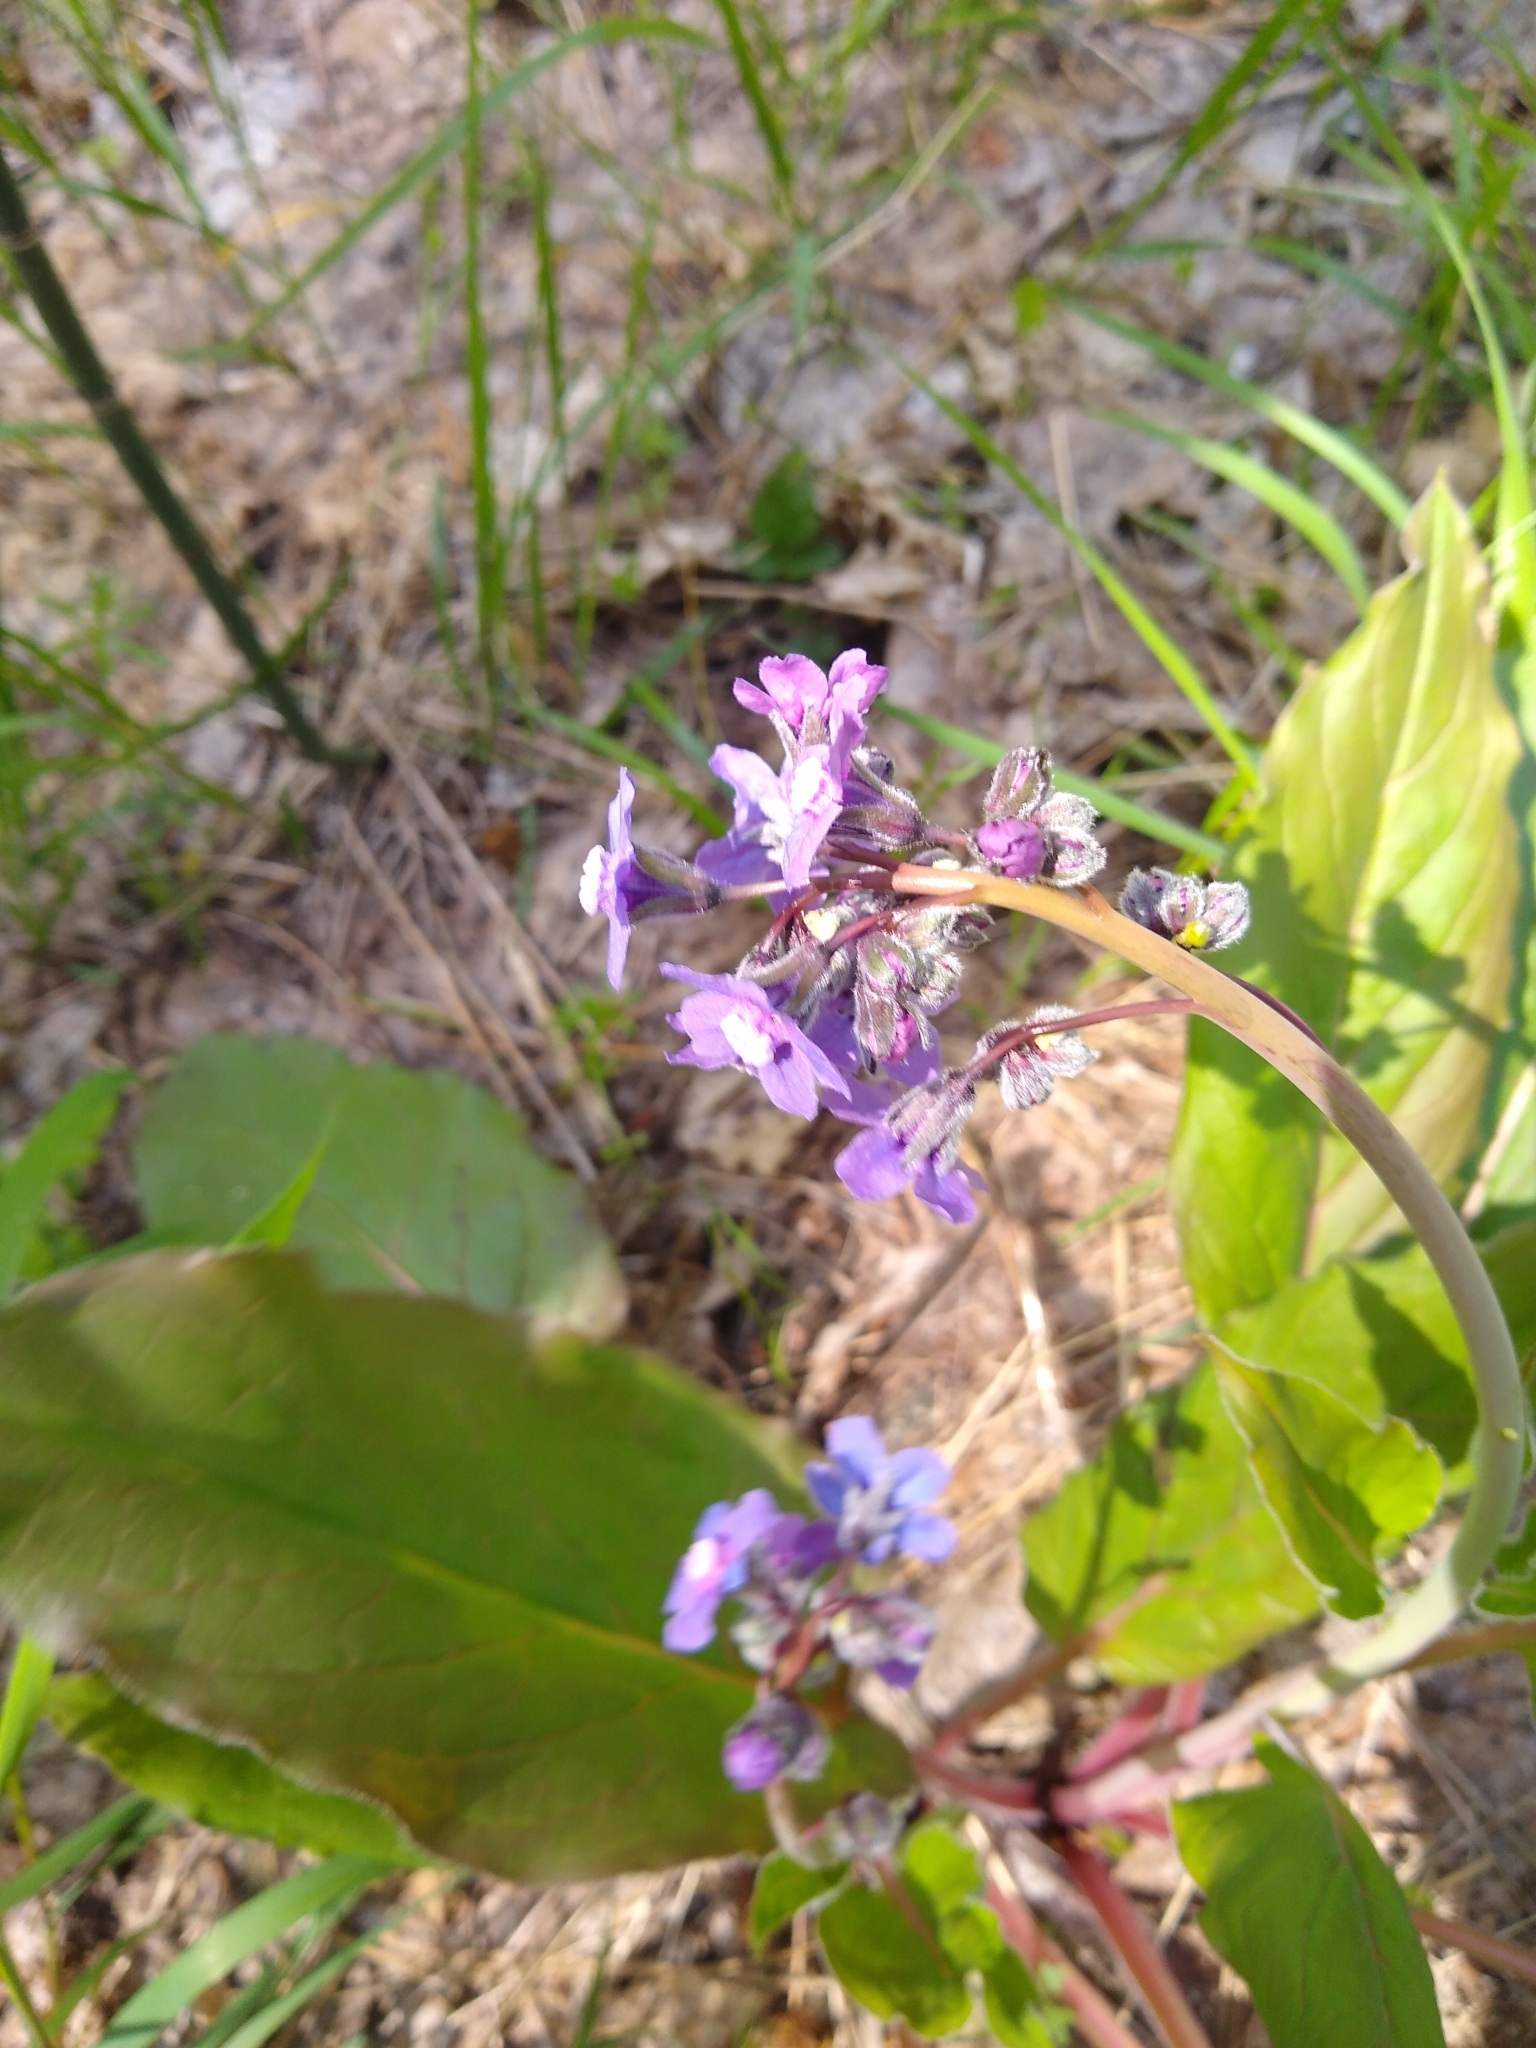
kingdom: Plantae
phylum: Tracheophyta
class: Magnoliopsida
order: Boraginales
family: Boraginaceae
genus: Adelinia
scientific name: Adelinia grande
